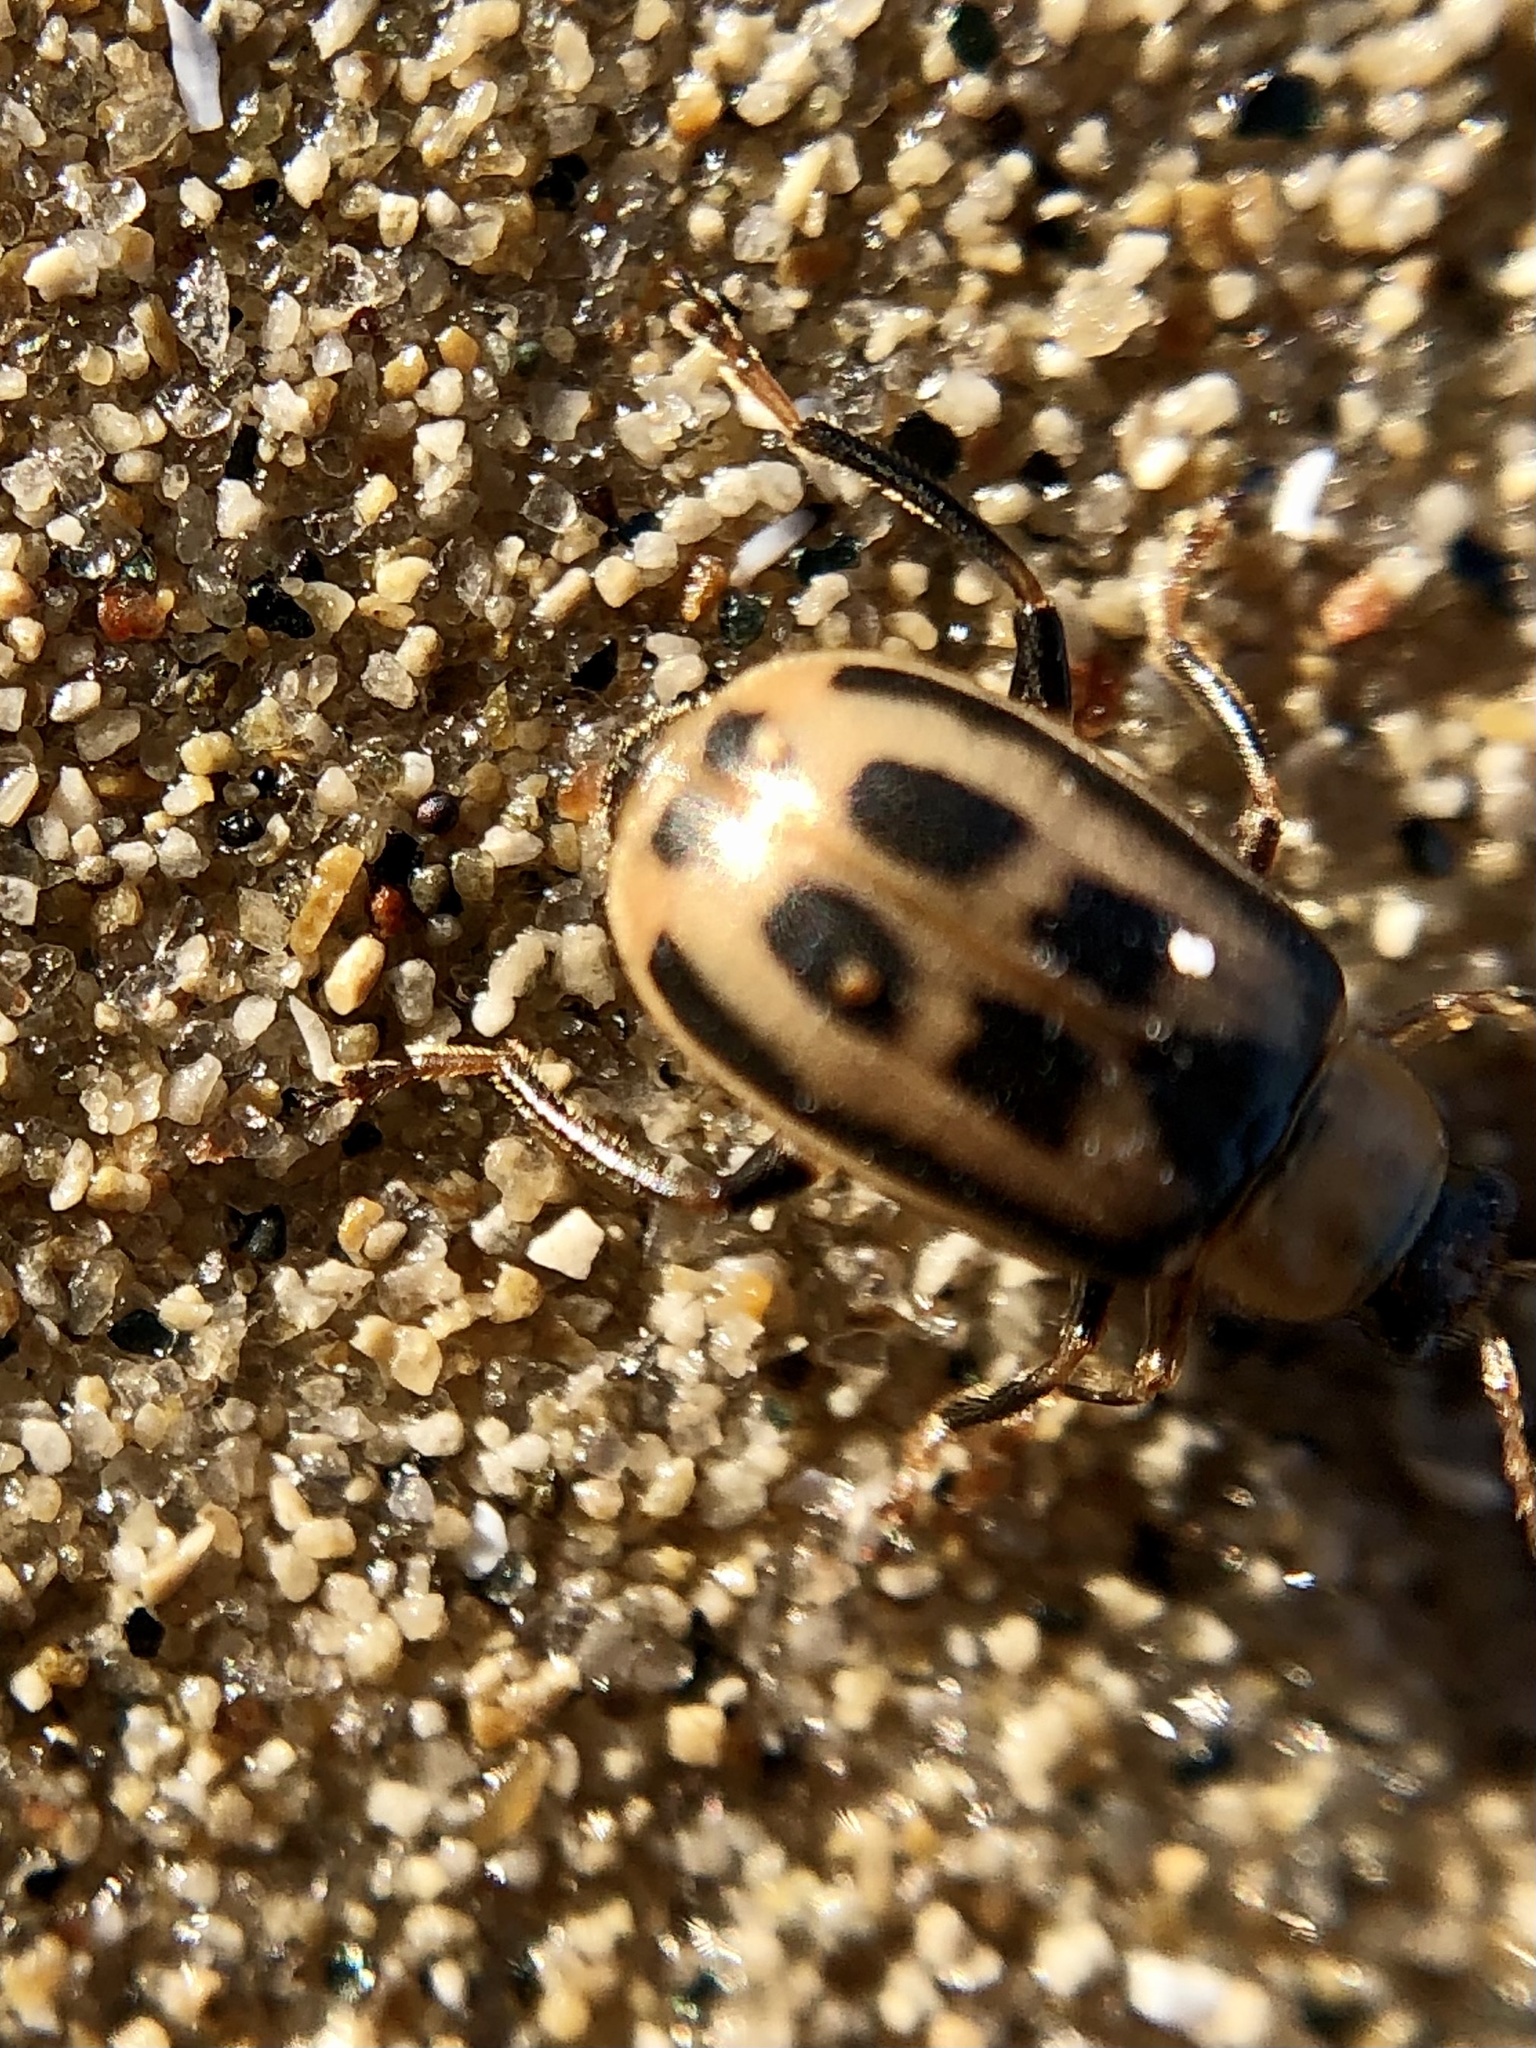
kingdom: Animalia
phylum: Arthropoda
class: Insecta
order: Coleoptera
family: Chrysomelidae
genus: Cerotoma
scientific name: Cerotoma trifurcata
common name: Bean leaf beetle
